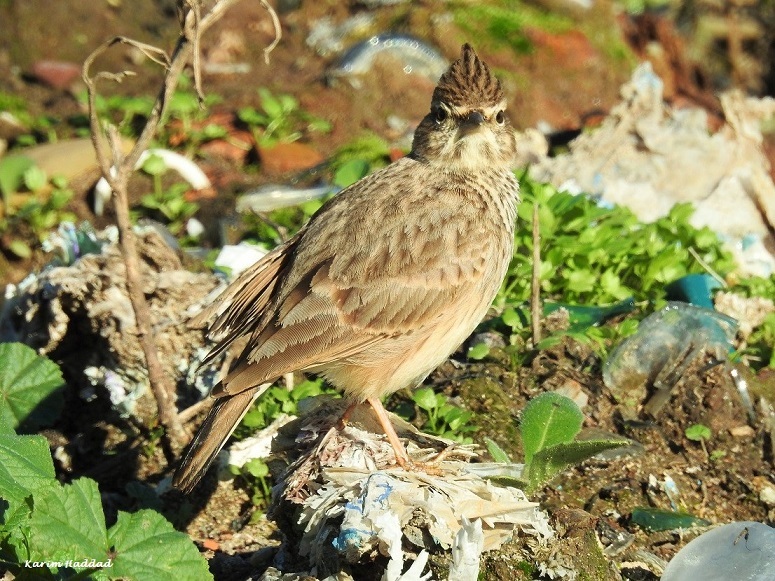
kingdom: Animalia
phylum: Chordata
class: Aves
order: Passeriformes
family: Alaudidae
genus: Galerida
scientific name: Galerida theklae
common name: Thekla lark
